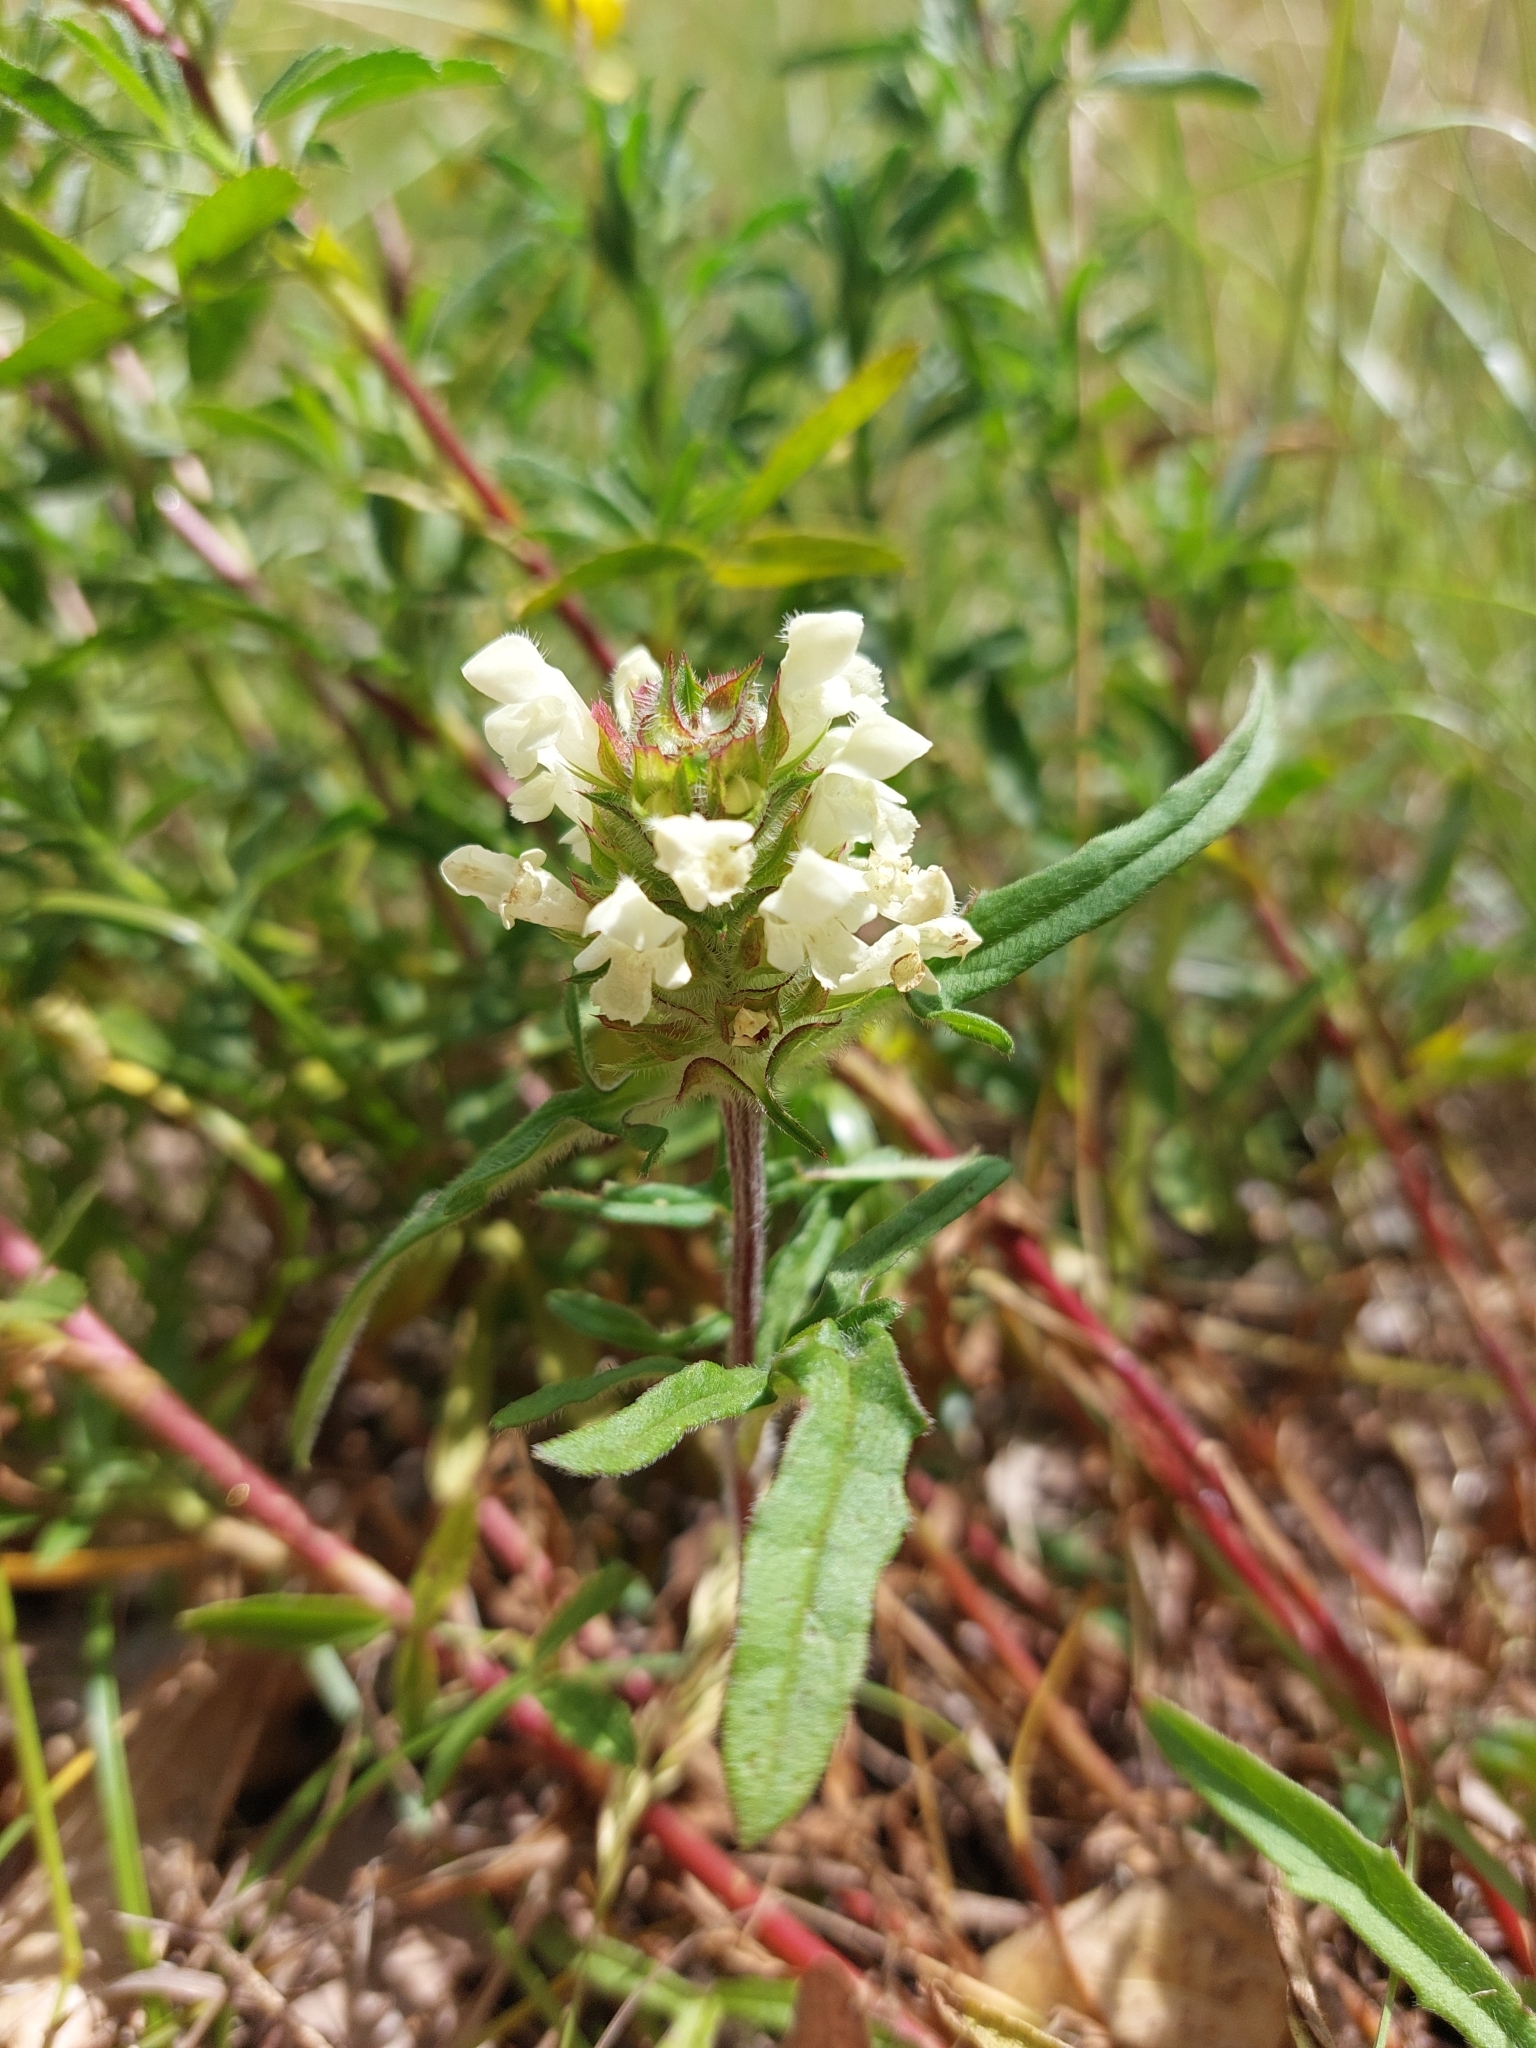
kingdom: Plantae
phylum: Tracheophyta
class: Magnoliopsida
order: Lamiales
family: Lamiaceae
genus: Prunella
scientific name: Prunella laciniata
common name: Cut-leaved selfheal
